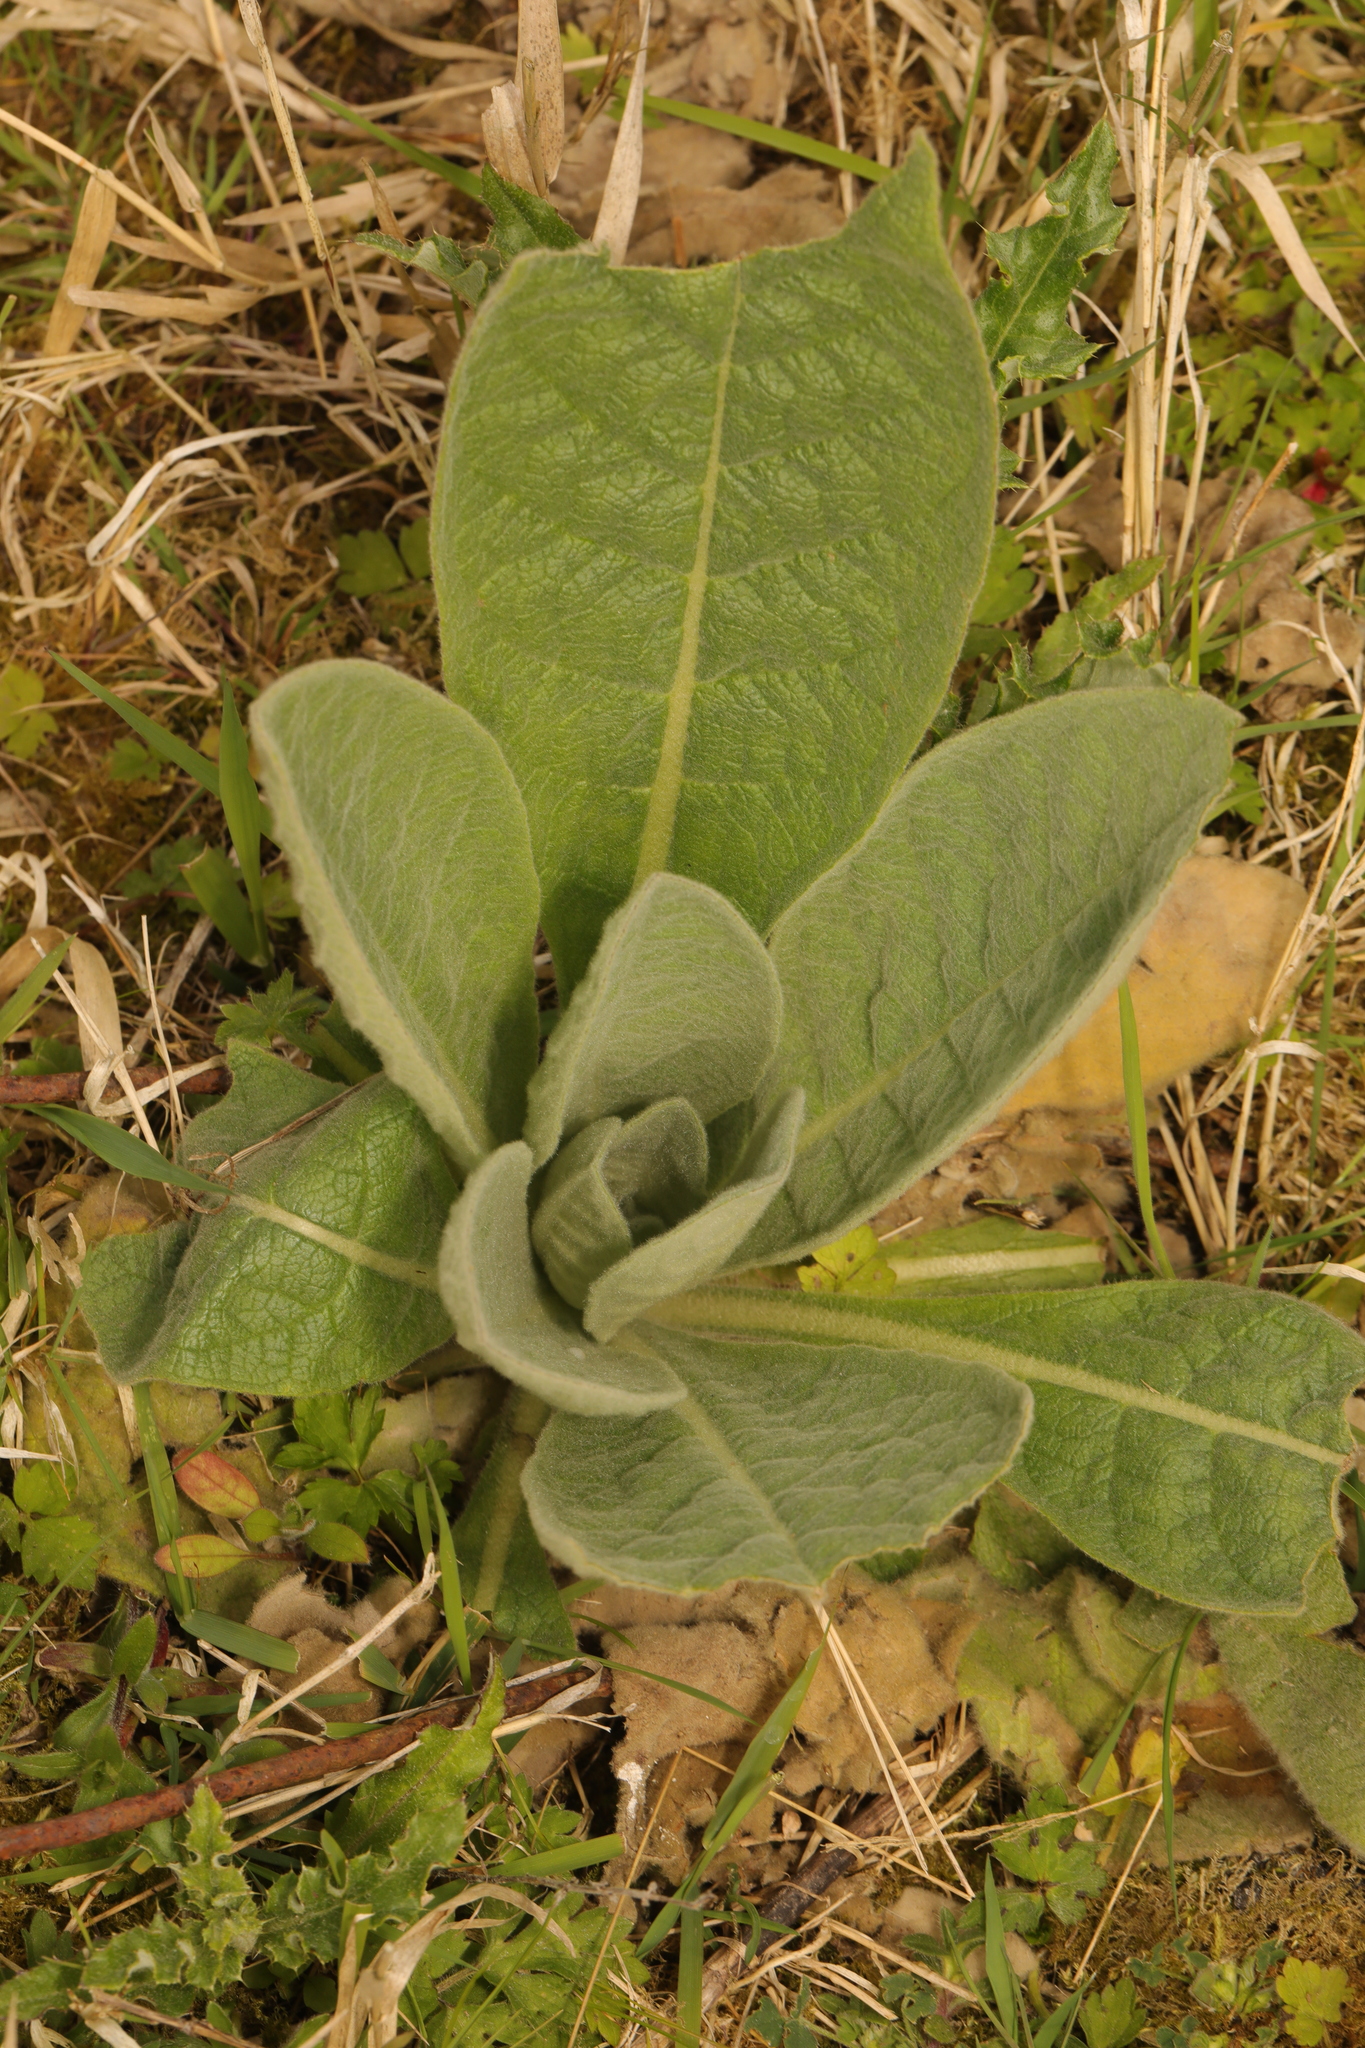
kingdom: Plantae
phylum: Tracheophyta
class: Magnoliopsida
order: Lamiales
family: Scrophulariaceae
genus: Verbascum
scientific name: Verbascum thapsus
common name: Common mullein
